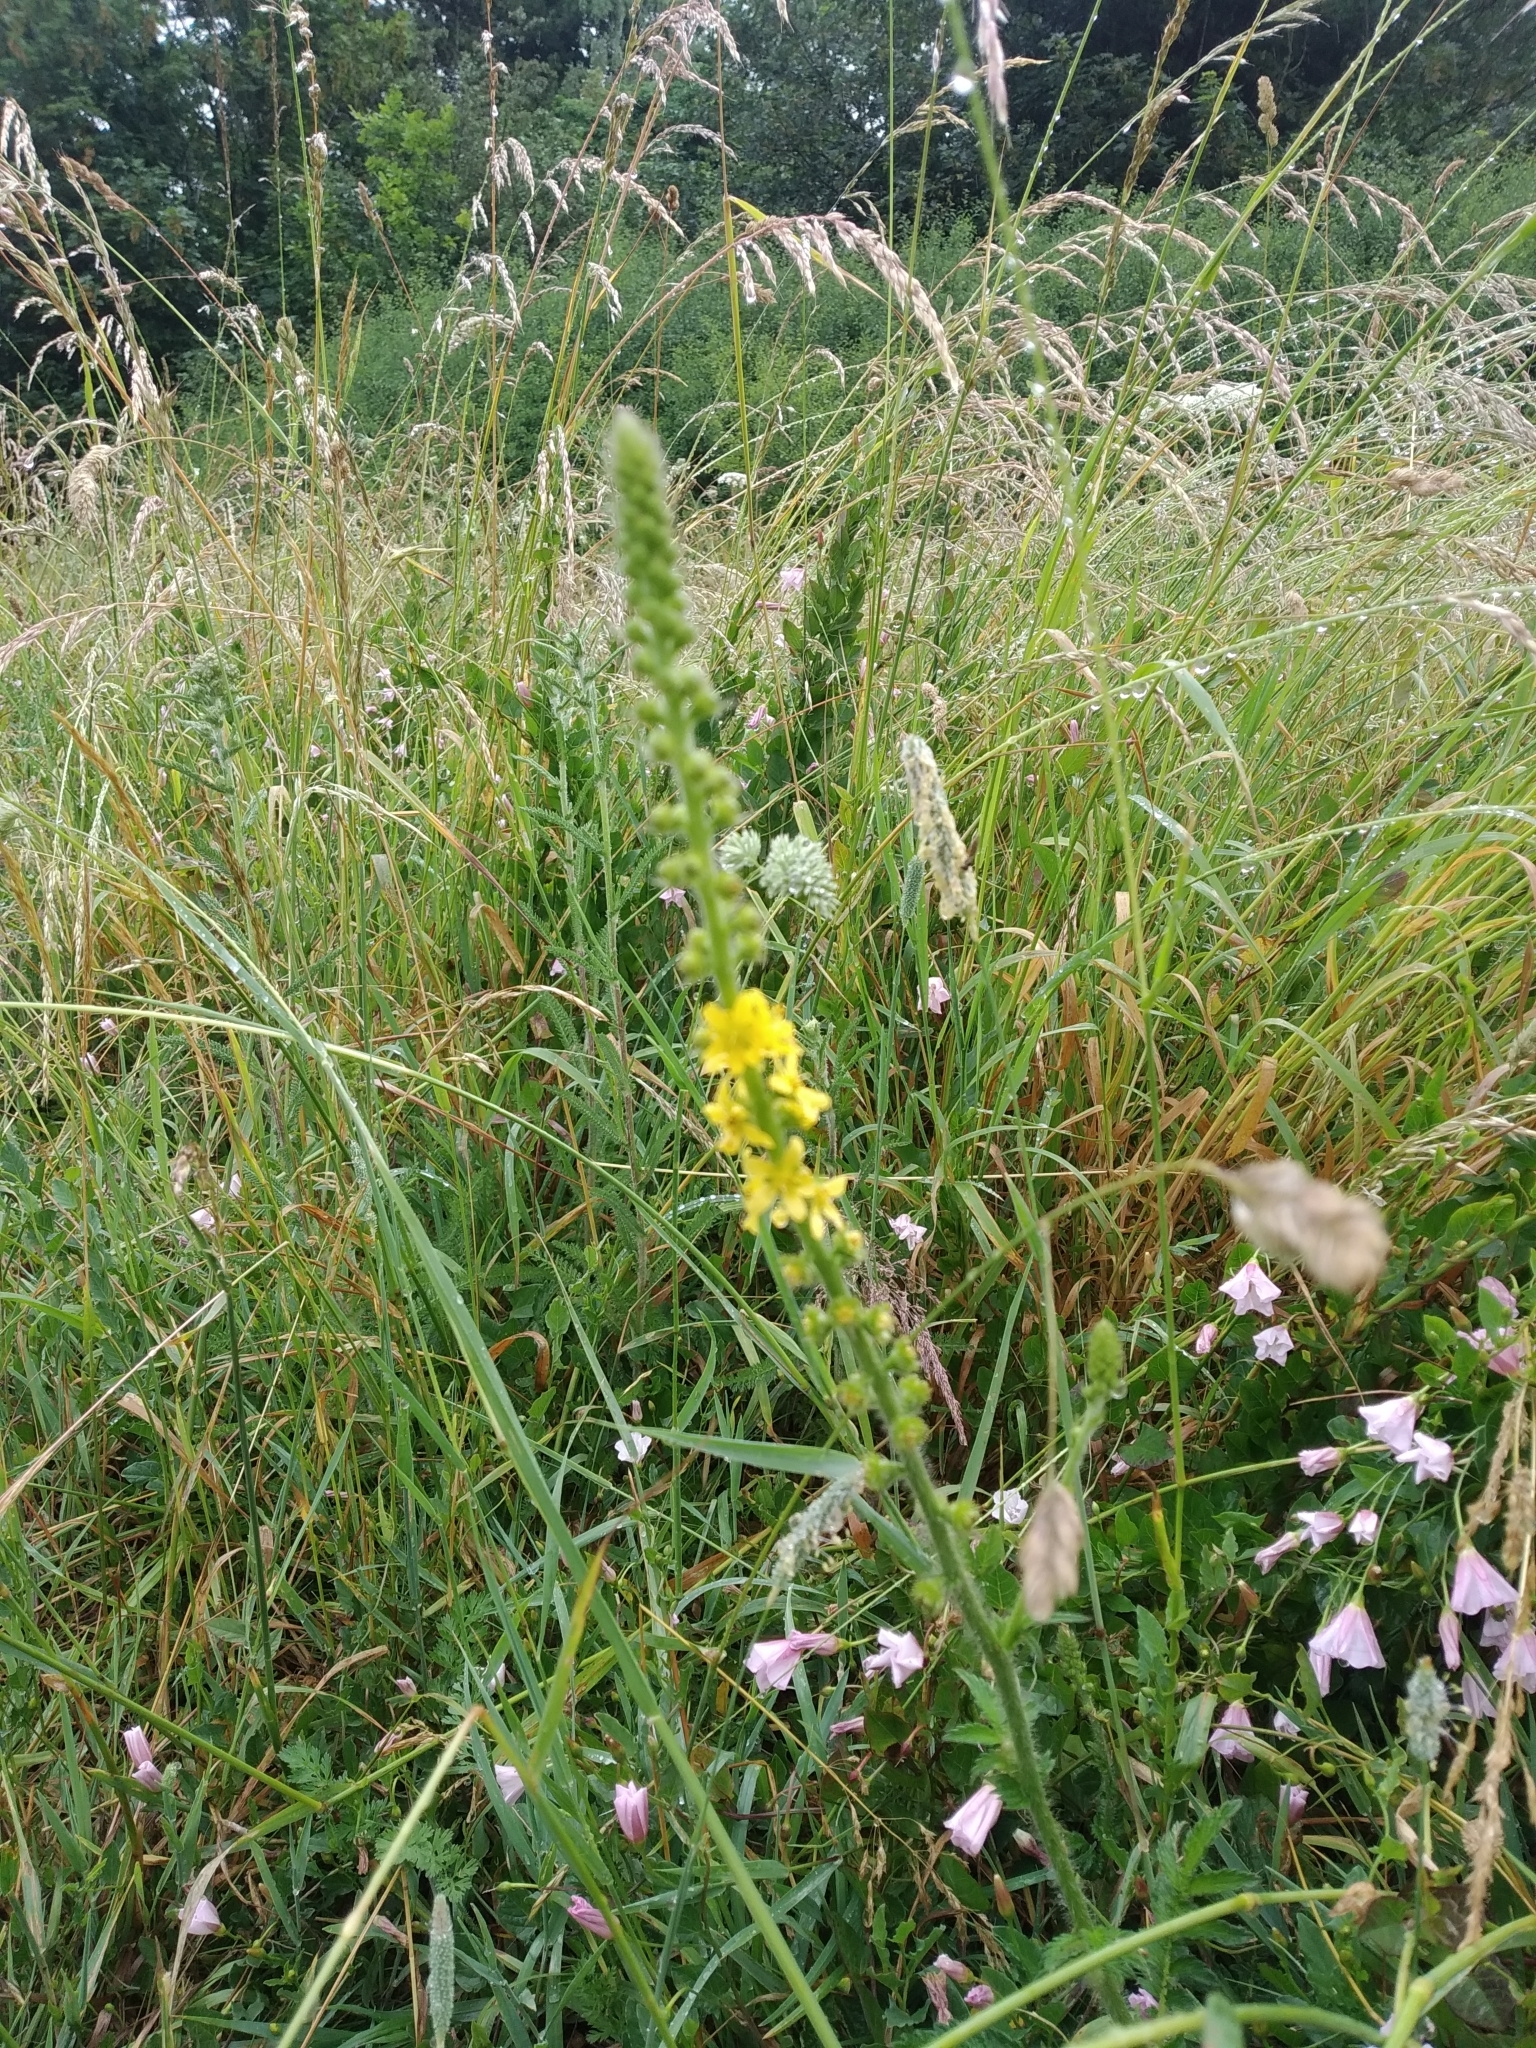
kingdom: Plantae
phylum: Tracheophyta
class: Magnoliopsida
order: Rosales
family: Rosaceae
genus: Agrimonia
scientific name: Agrimonia eupatoria
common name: Agrimony
